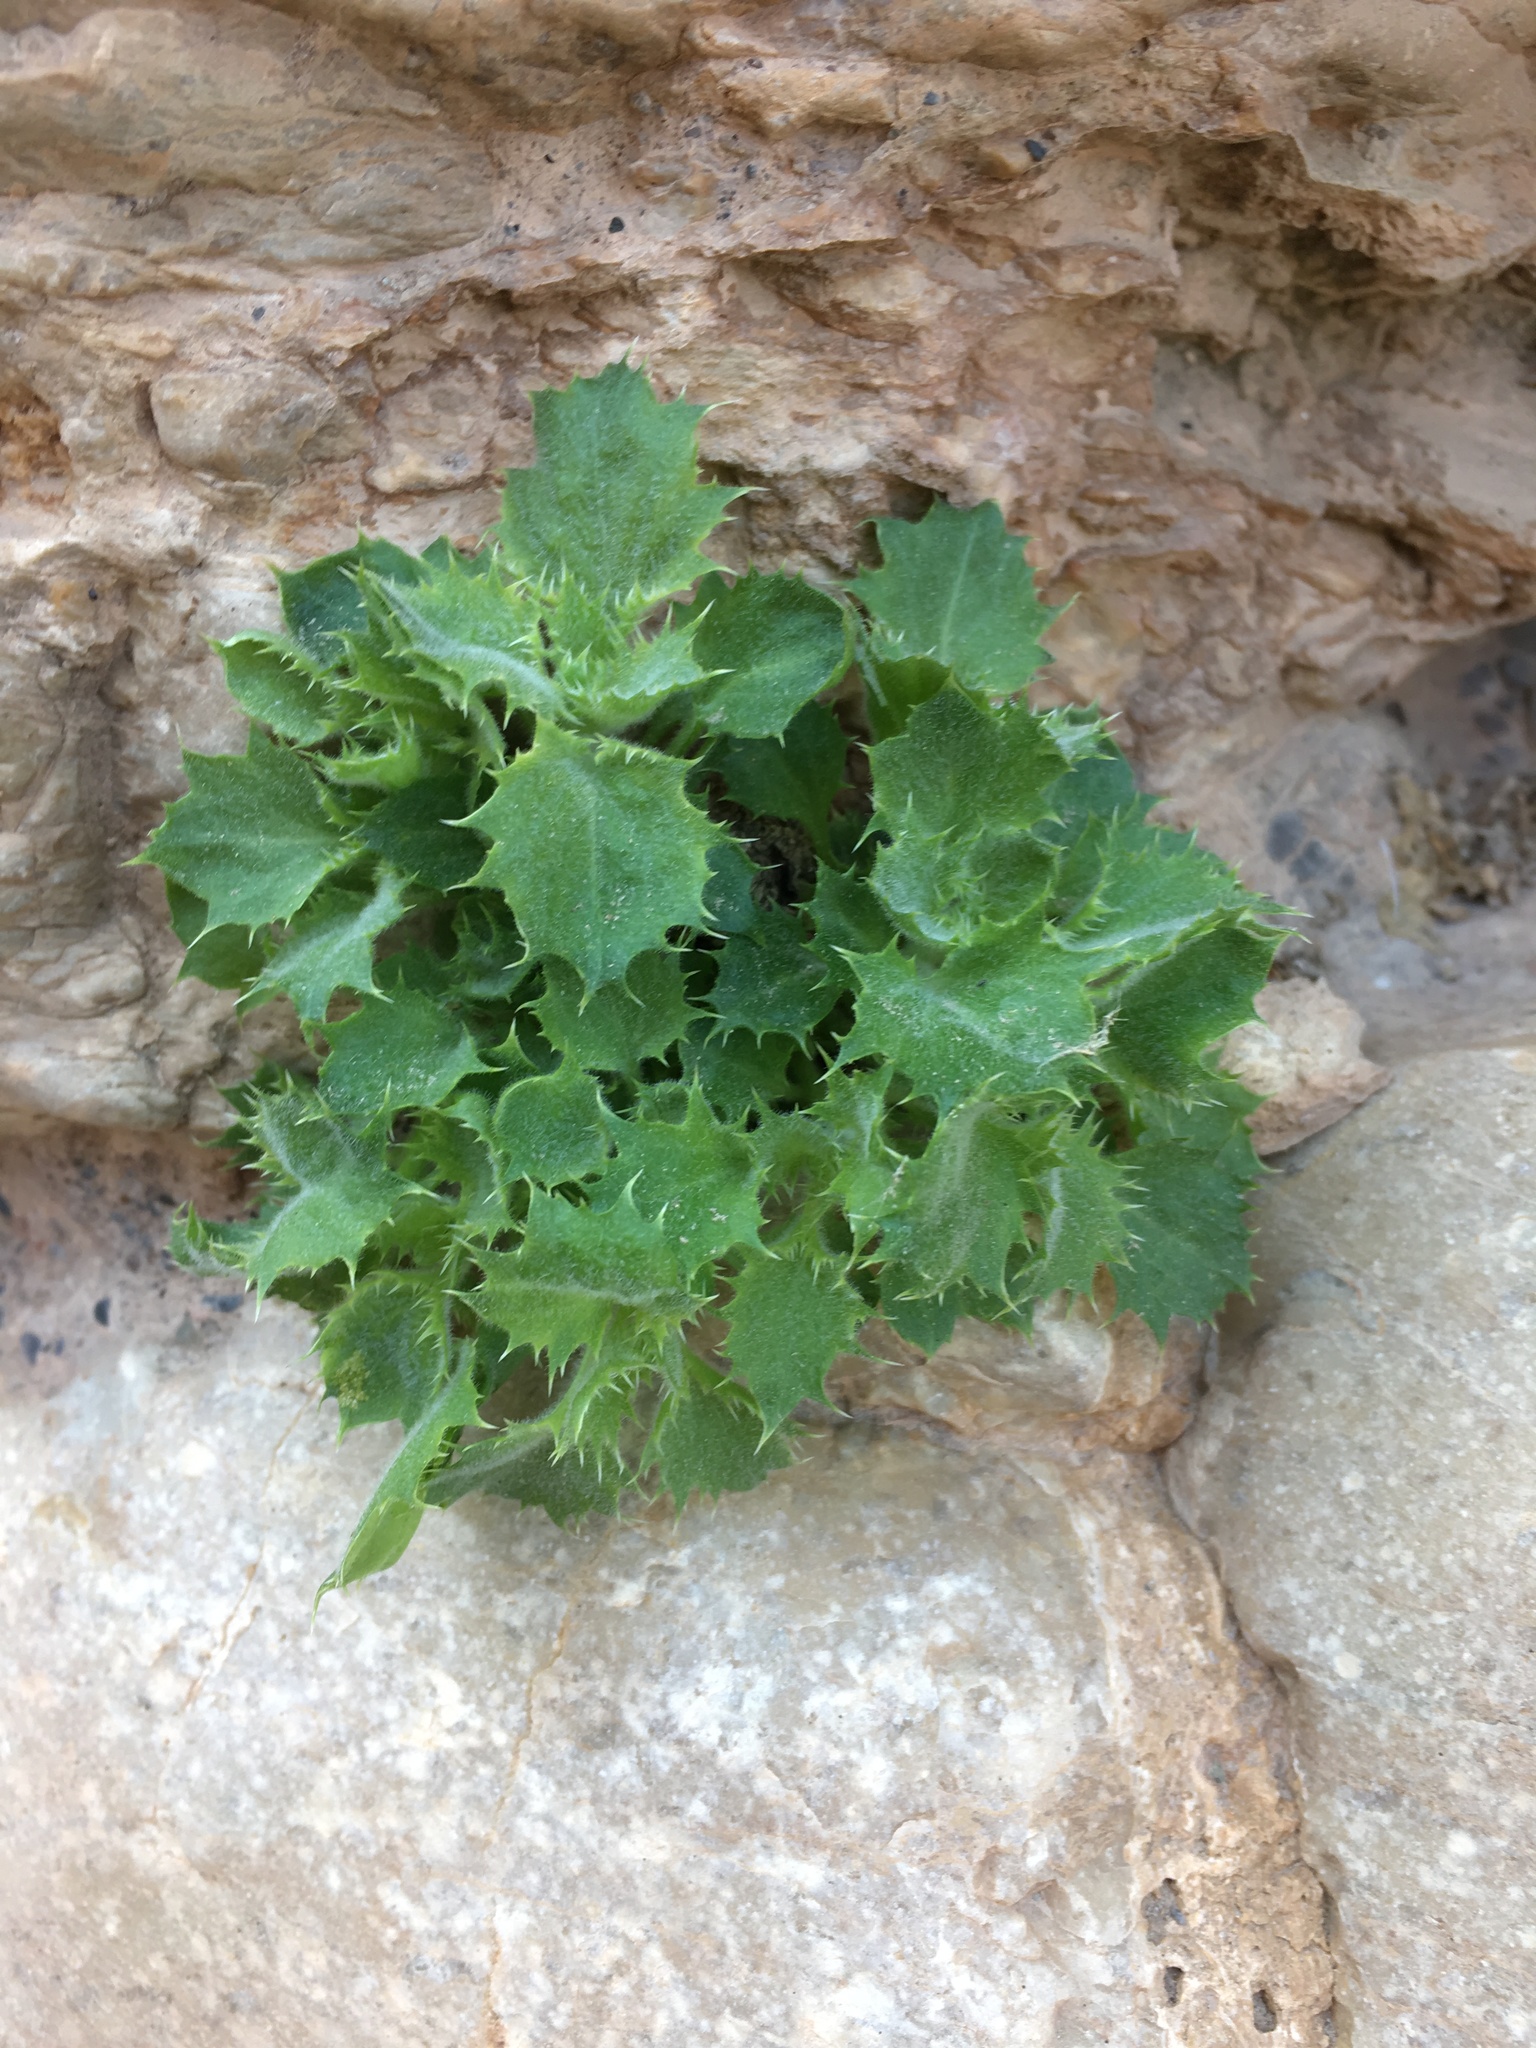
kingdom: Plantae
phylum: Tracheophyta
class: Magnoliopsida
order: Lamiales
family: Plantaginaceae
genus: Holmgrenanthe
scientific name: Holmgrenanthe petrophila
